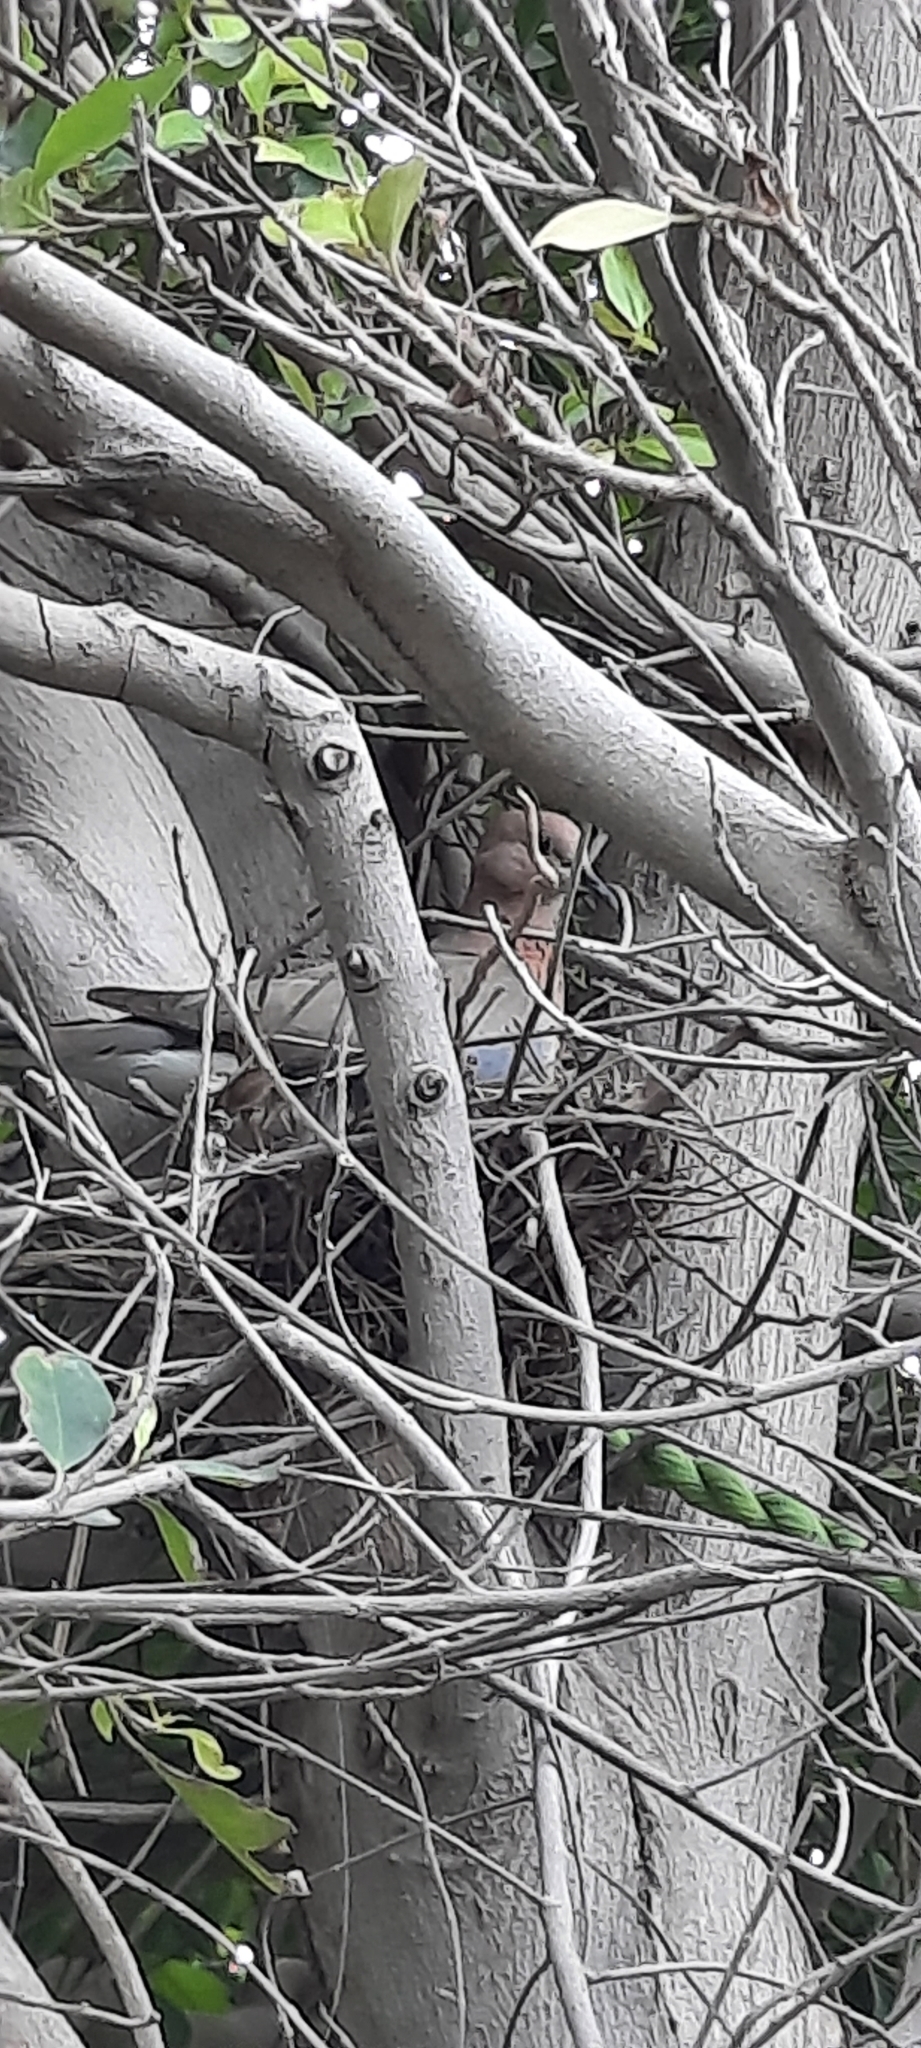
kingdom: Animalia
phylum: Chordata
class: Aves
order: Columbiformes
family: Columbidae
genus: Spilopelia
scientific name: Spilopelia senegalensis
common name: Laughing dove
